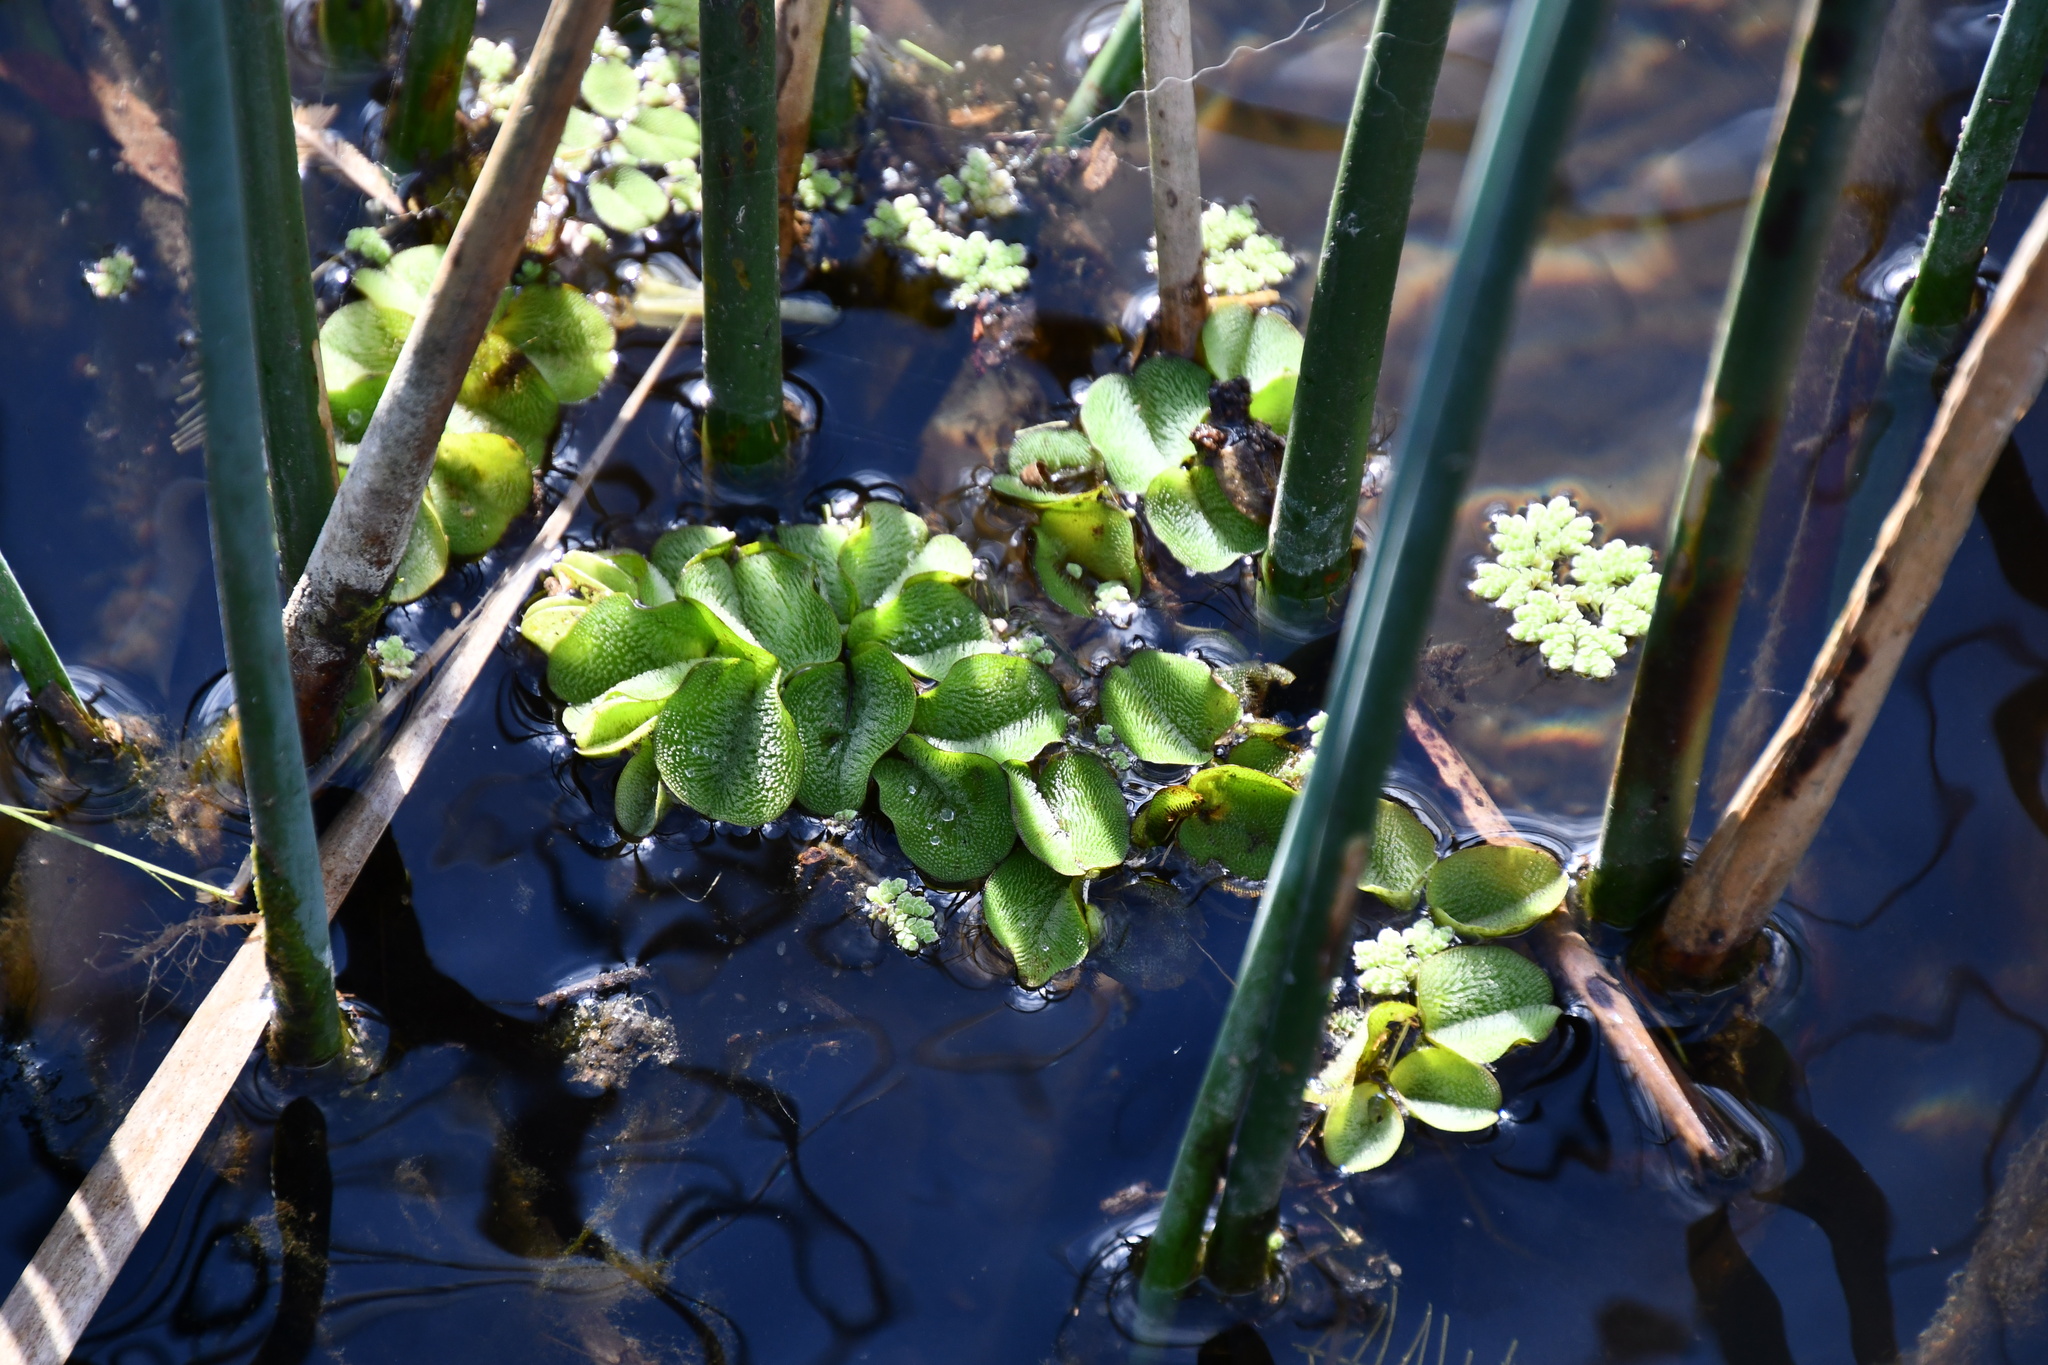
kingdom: Plantae
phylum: Tracheophyta
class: Polypodiopsida
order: Salviniales
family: Salviniaceae
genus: Salvinia
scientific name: Salvinia molesta
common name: Kariba weed
